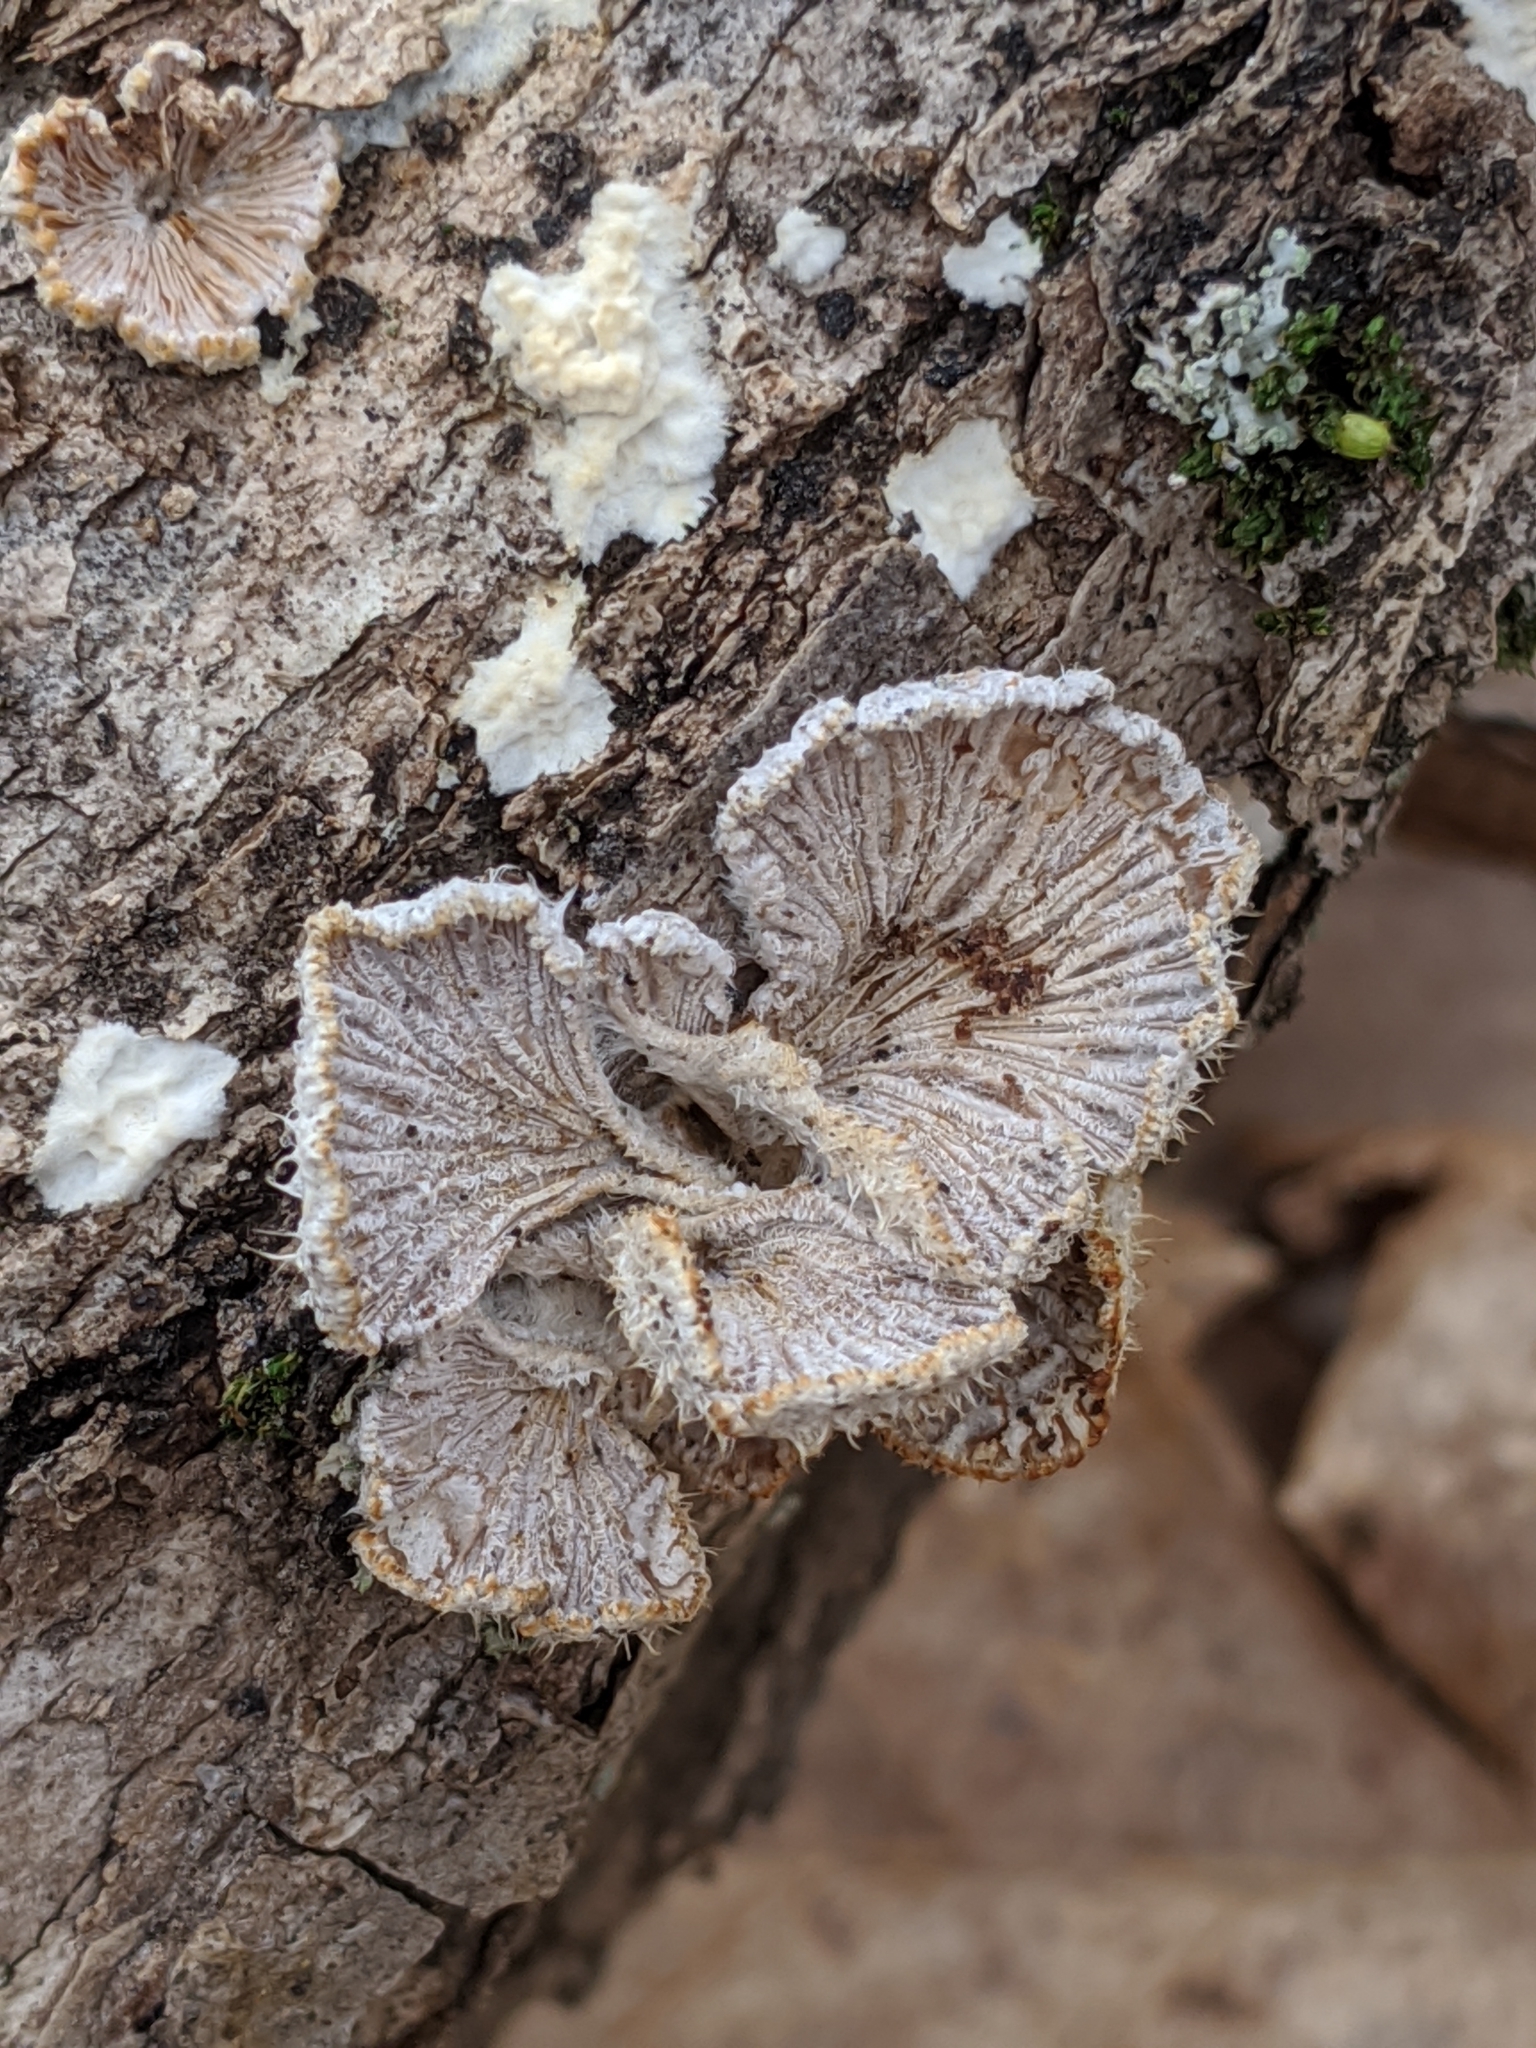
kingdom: Fungi
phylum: Basidiomycota
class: Agaricomycetes
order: Agaricales
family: Schizophyllaceae
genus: Schizophyllum
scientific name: Schizophyllum commune
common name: Common porecrust
